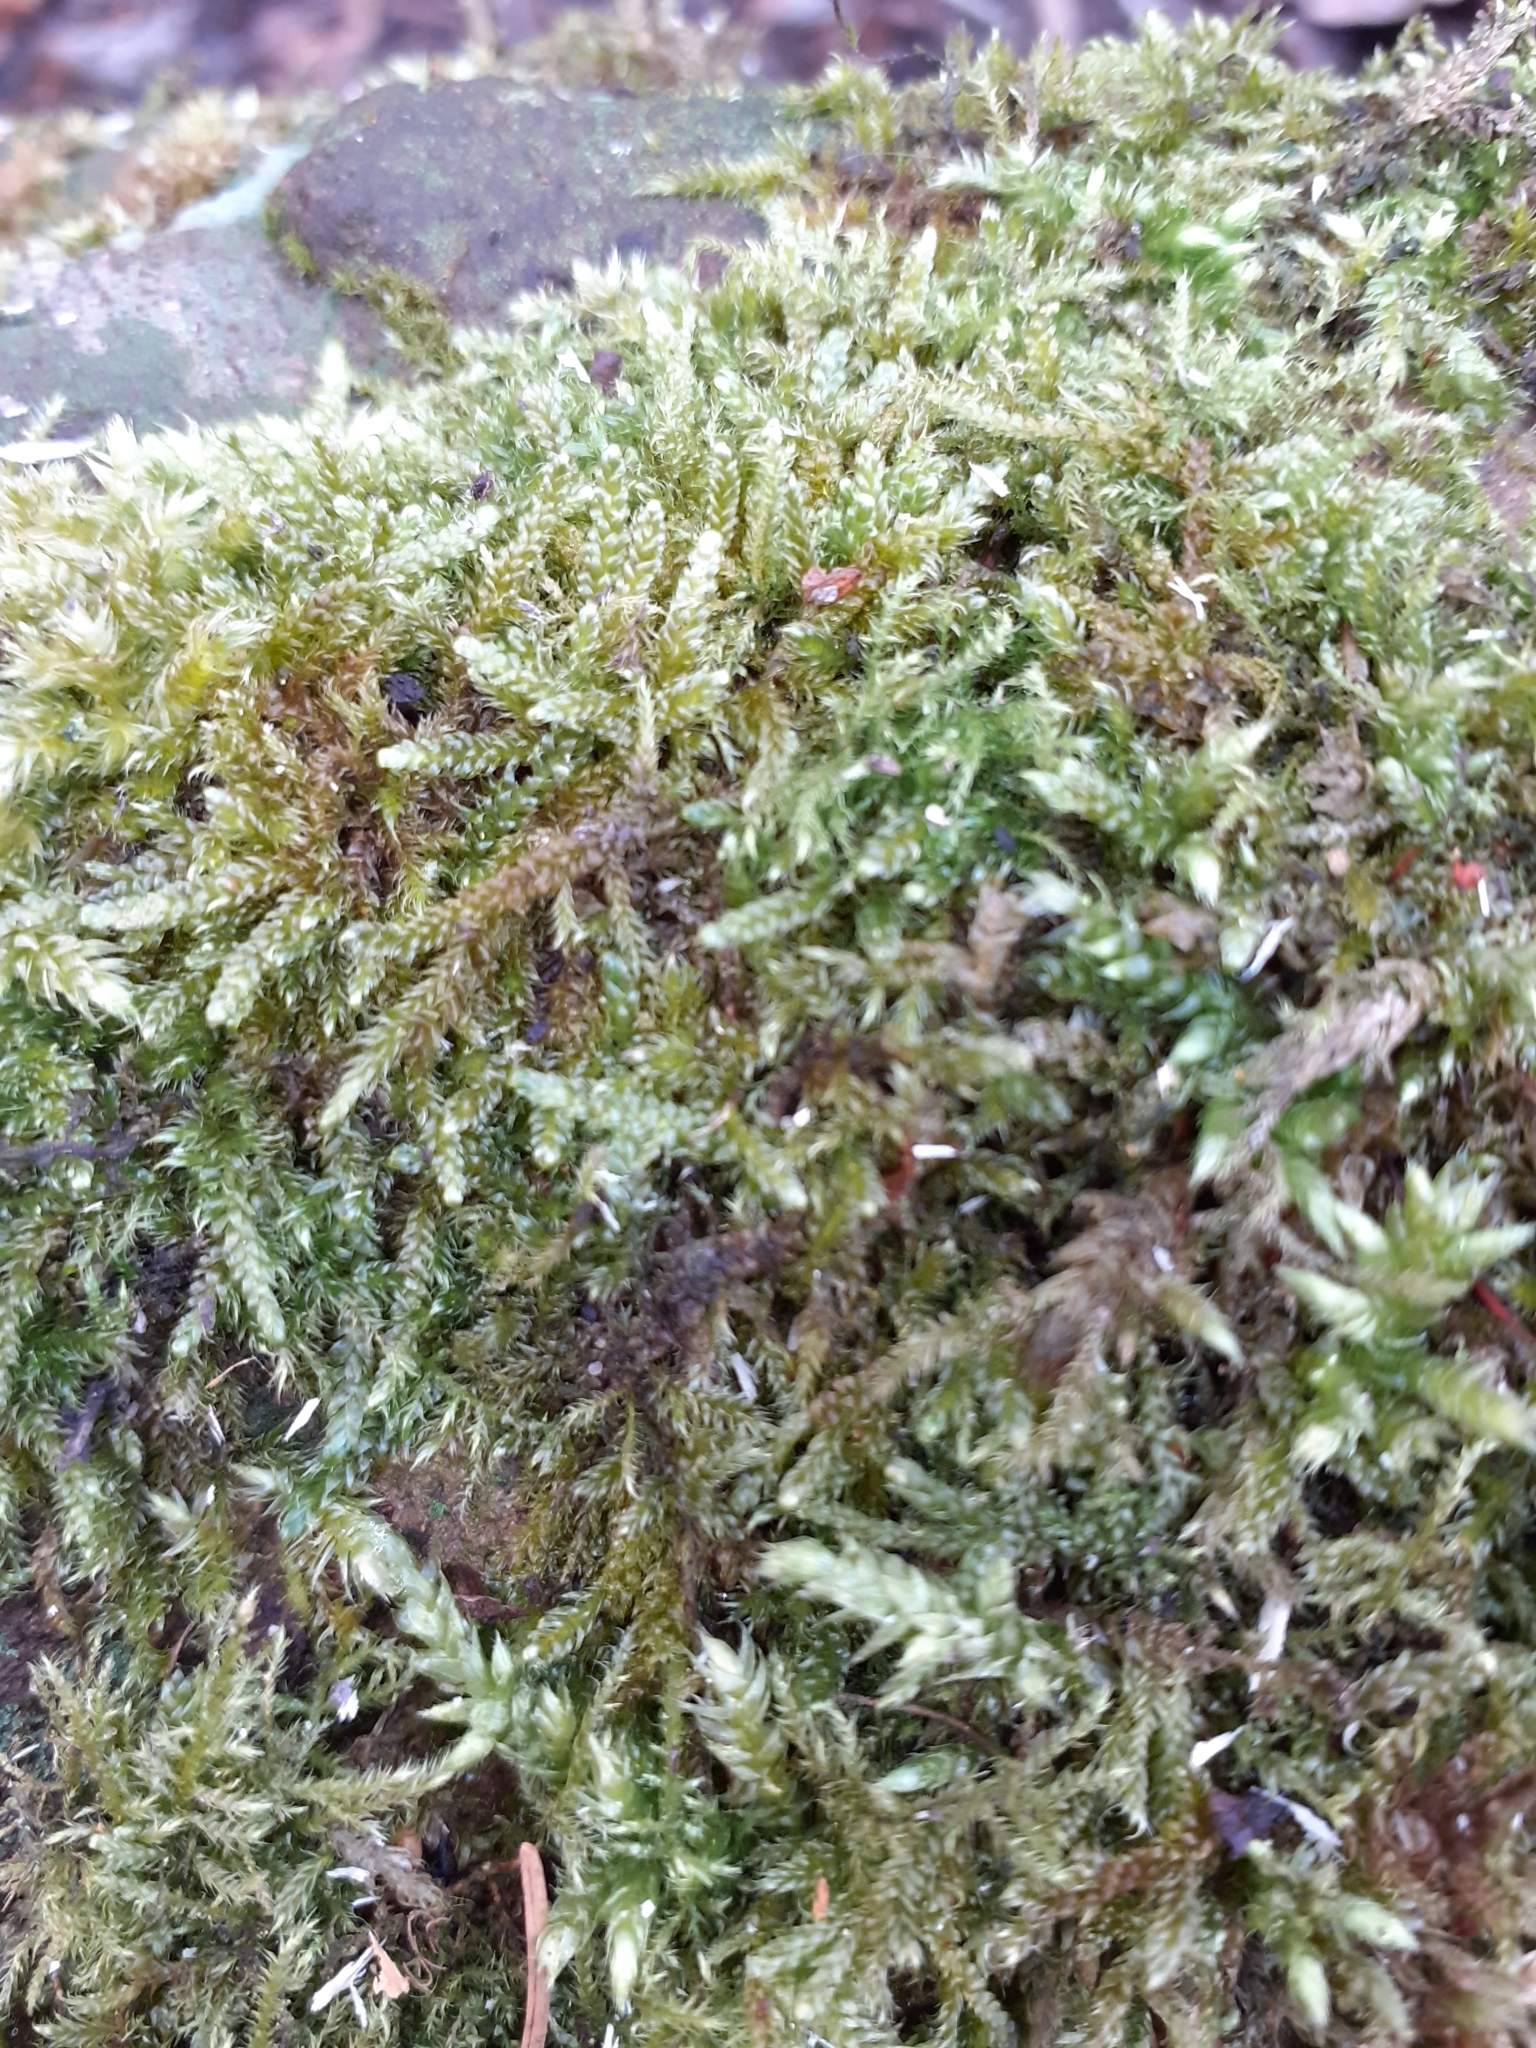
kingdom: Plantae
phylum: Bryophyta
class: Bryopsida
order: Hypnales
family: Hypnaceae
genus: Hypnum
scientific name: Hypnum cupressiforme
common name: Cypress-leaved plait-moss
